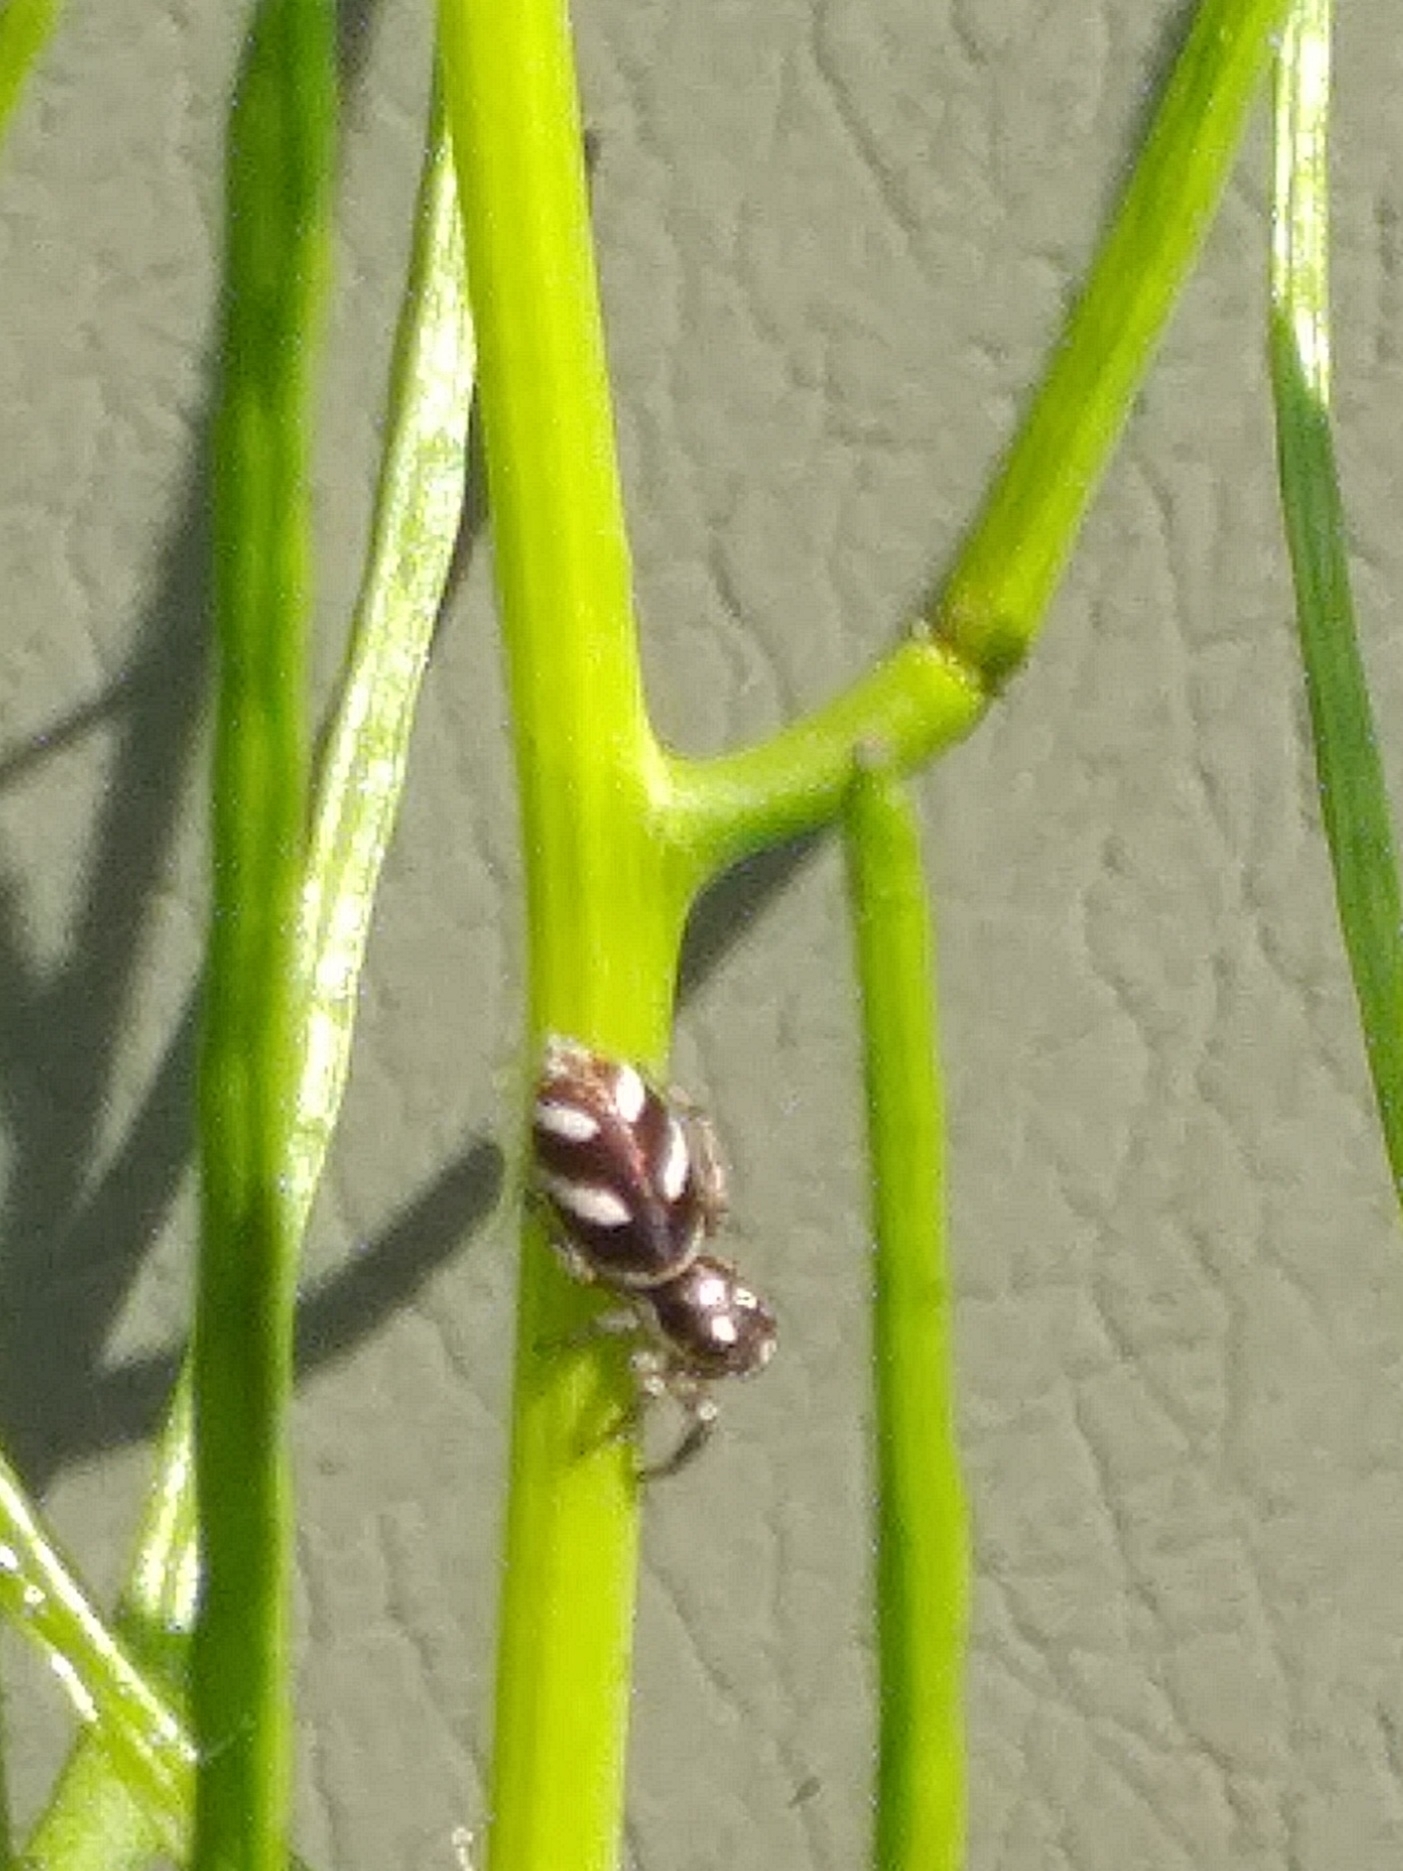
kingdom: Animalia
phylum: Arthropoda
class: Arachnida
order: Araneae
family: Salticidae
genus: Salticus
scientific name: Salticus scenicus
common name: Zebra jumper
